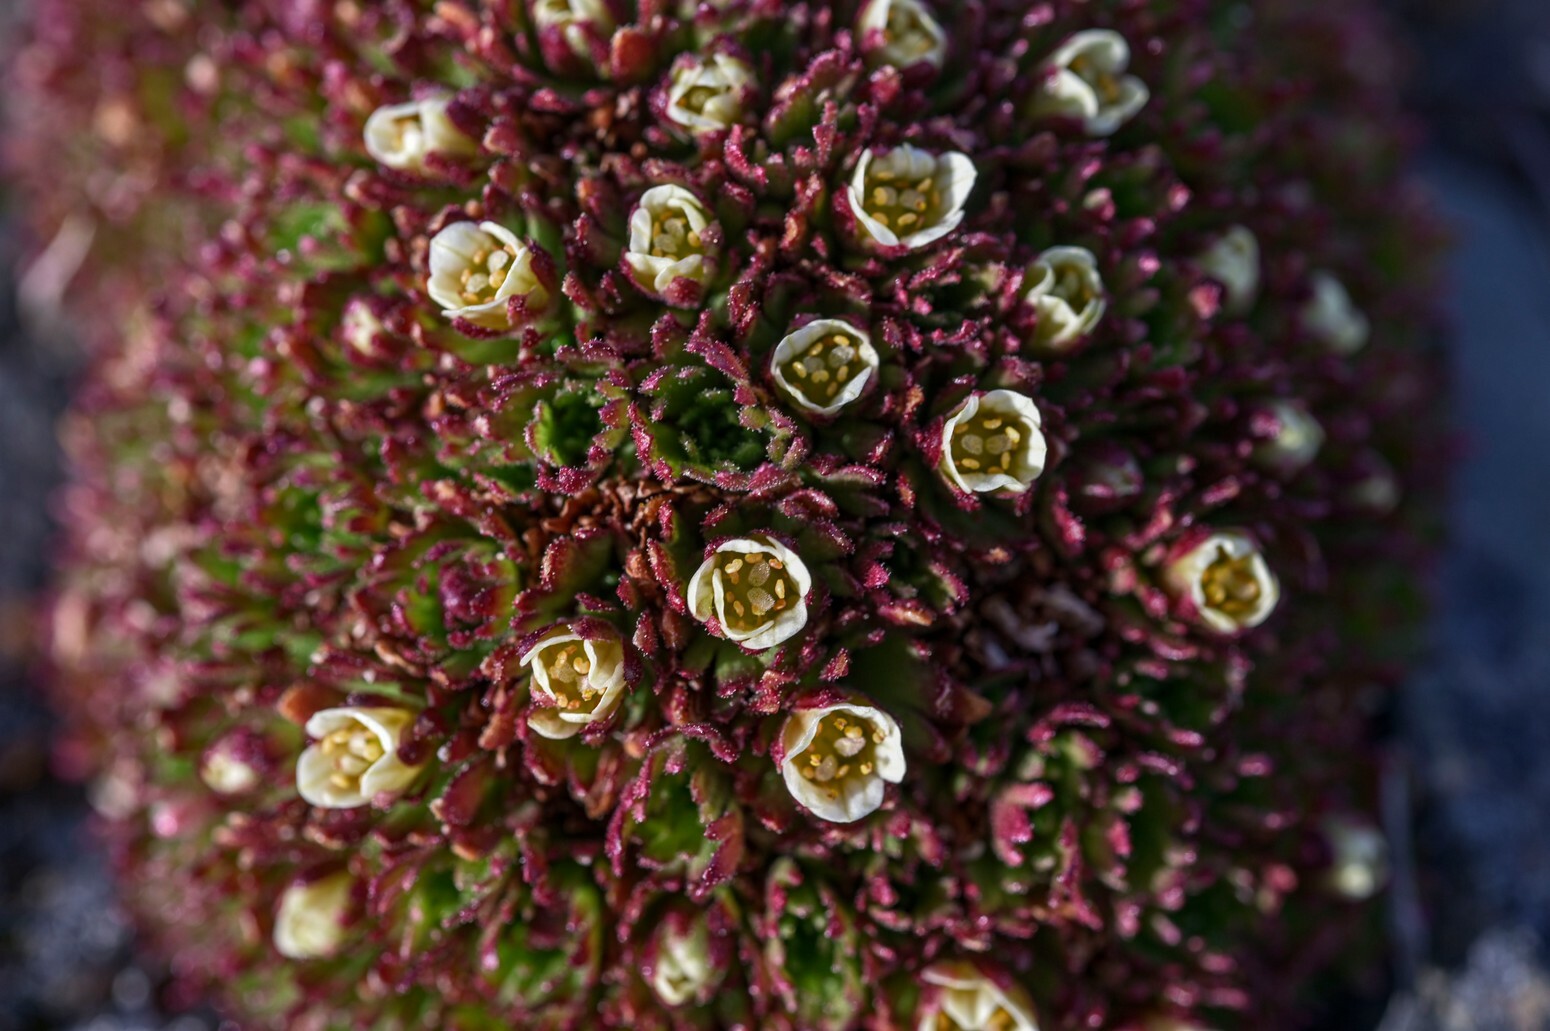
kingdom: Plantae
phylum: Tracheophyta
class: Magnoliopsida
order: Saxifragales
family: Saxifragaceae
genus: Saxifraga
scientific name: Saxifraga cespitosa
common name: Tufted saxifrage
